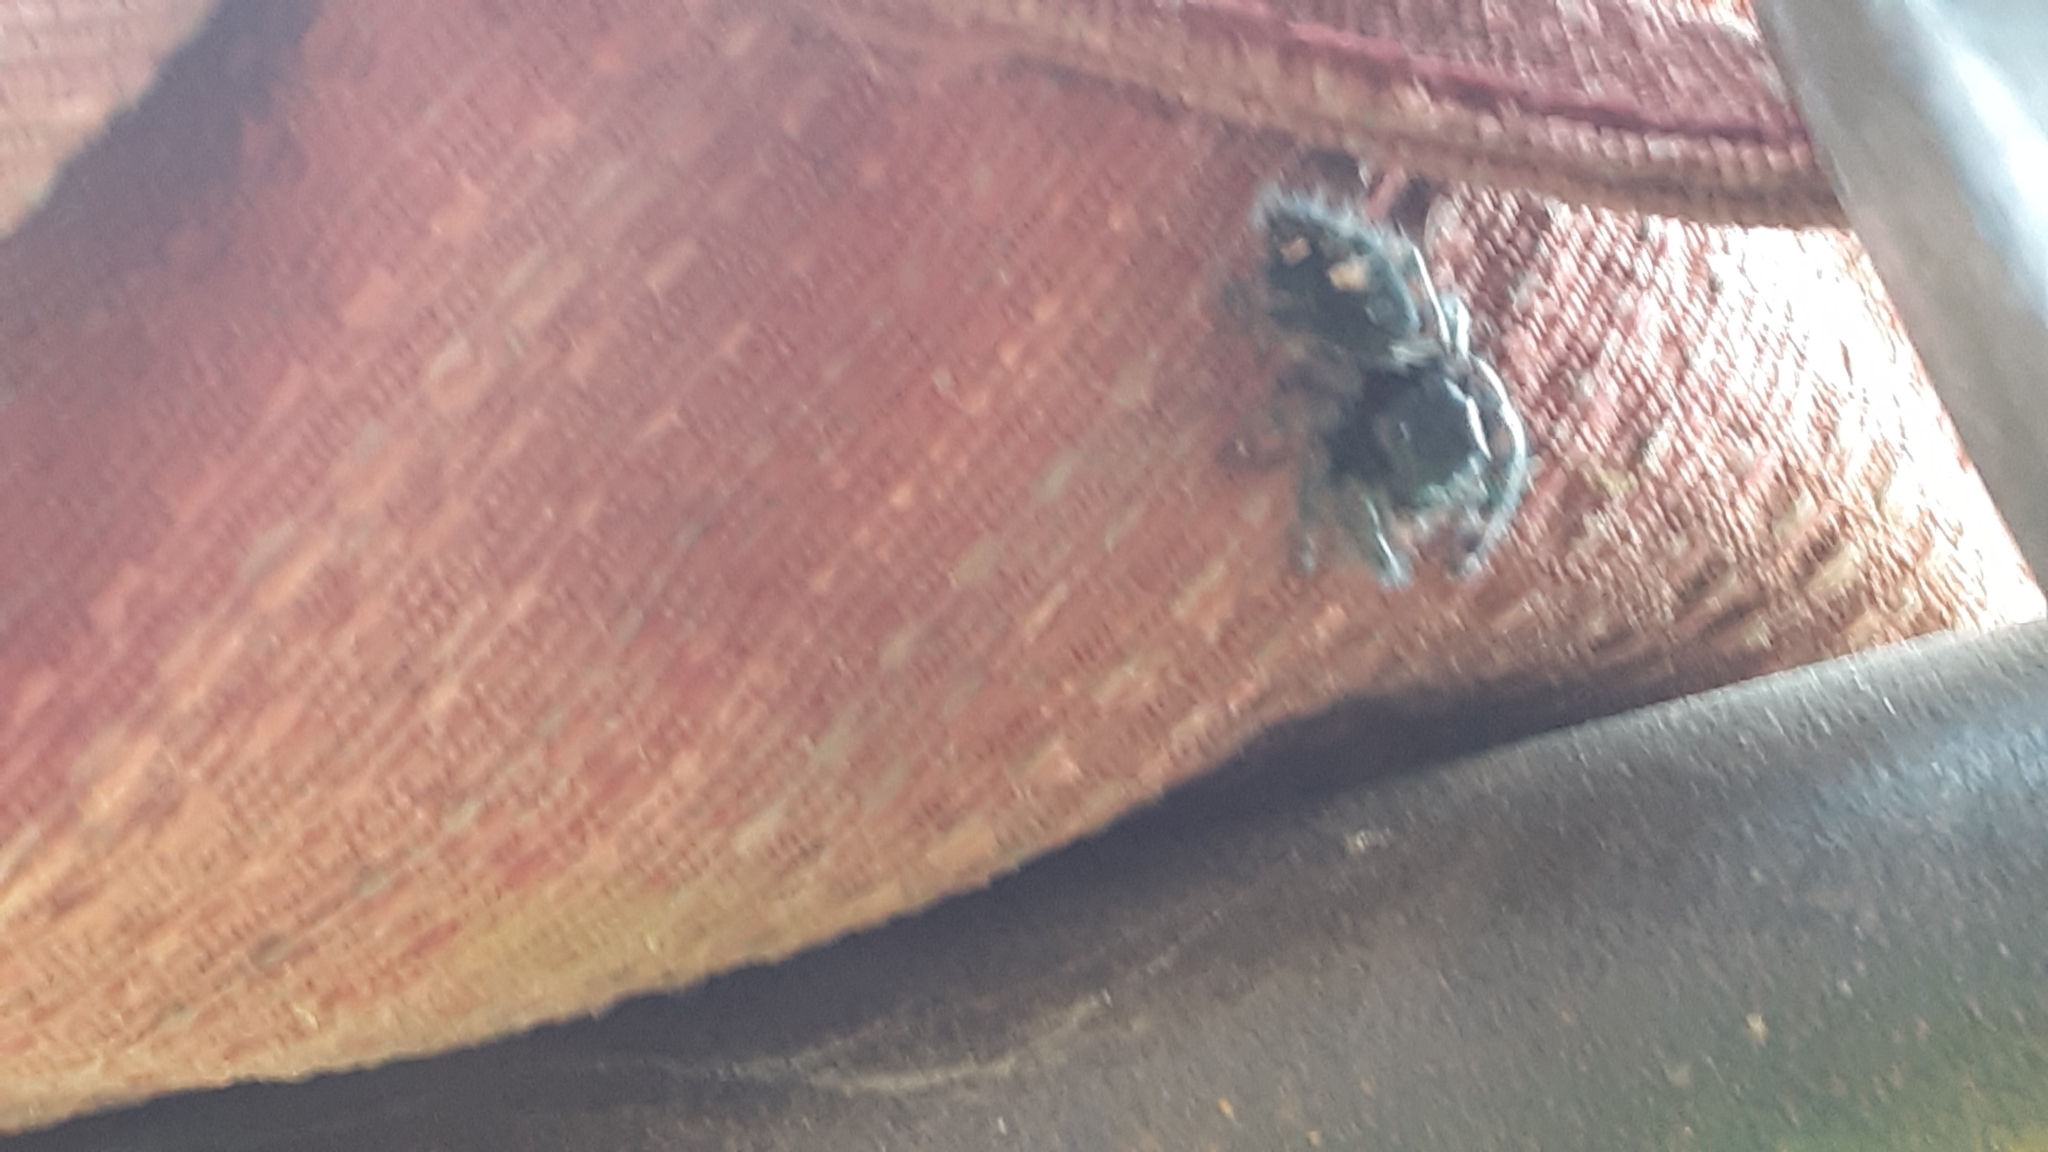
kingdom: Animalia
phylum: Arthropoda
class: Arachnida
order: Araneae
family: Salticidae
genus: Phidippus
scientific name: Phidippus audax
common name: Bold jumper
